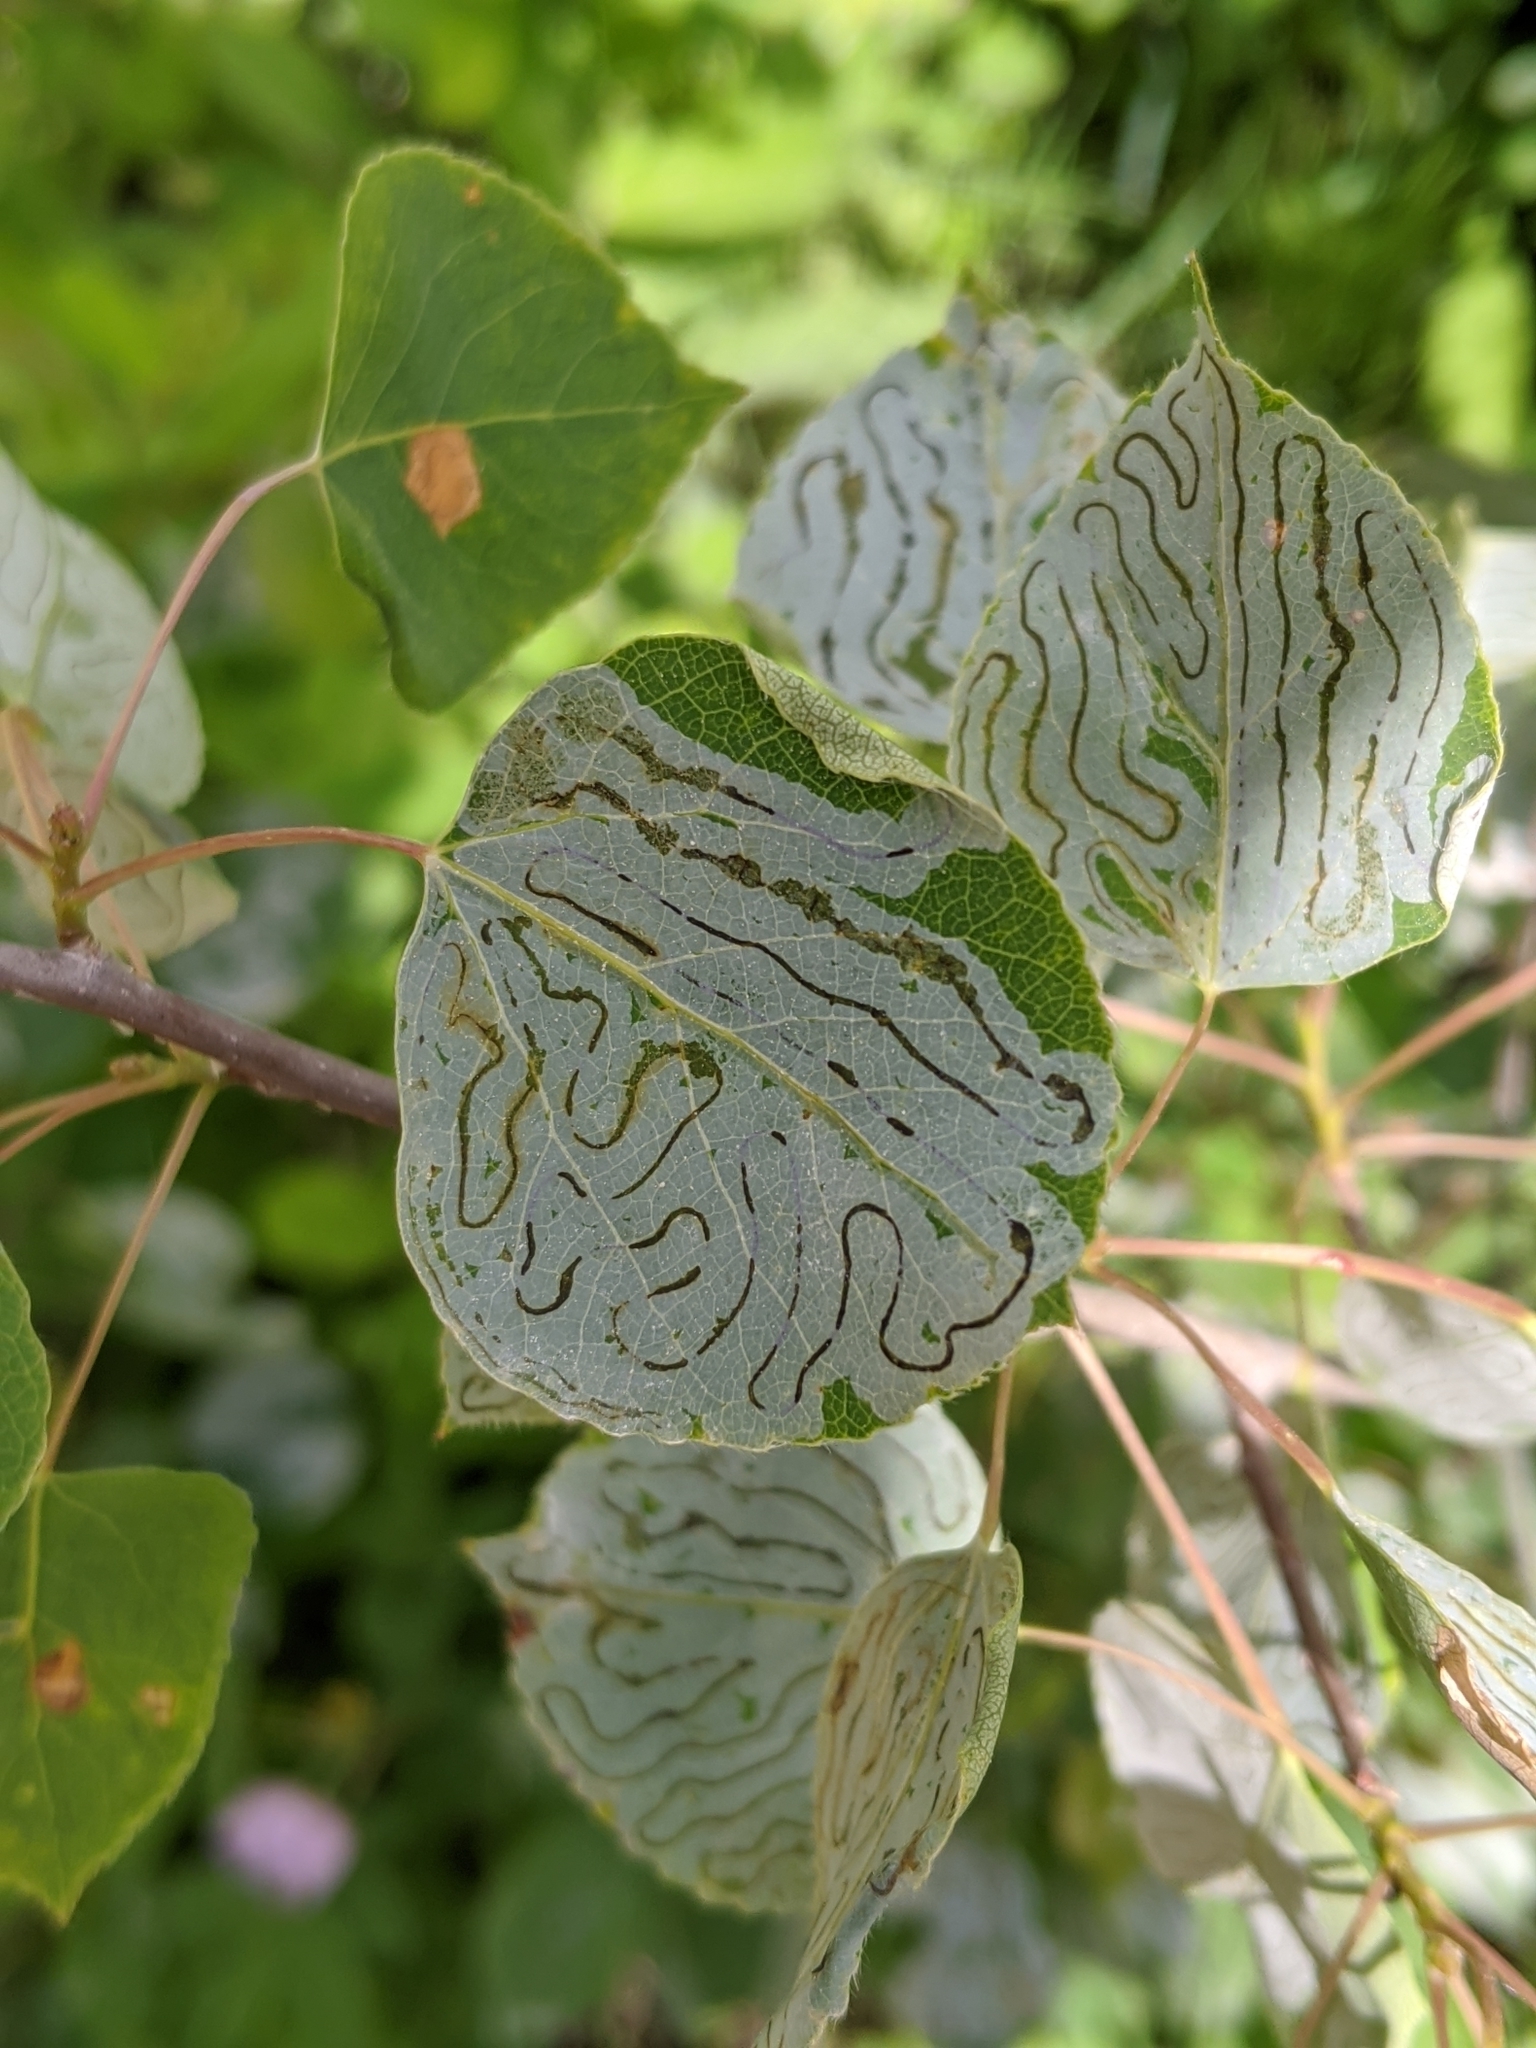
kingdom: Animalia
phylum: Arthropoda
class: Insecta
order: Lepidoptera
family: Gracillariidae
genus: Phyllocnistis
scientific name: Phyllocnistis populiella
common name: Aspen serpentine leafminer moth
